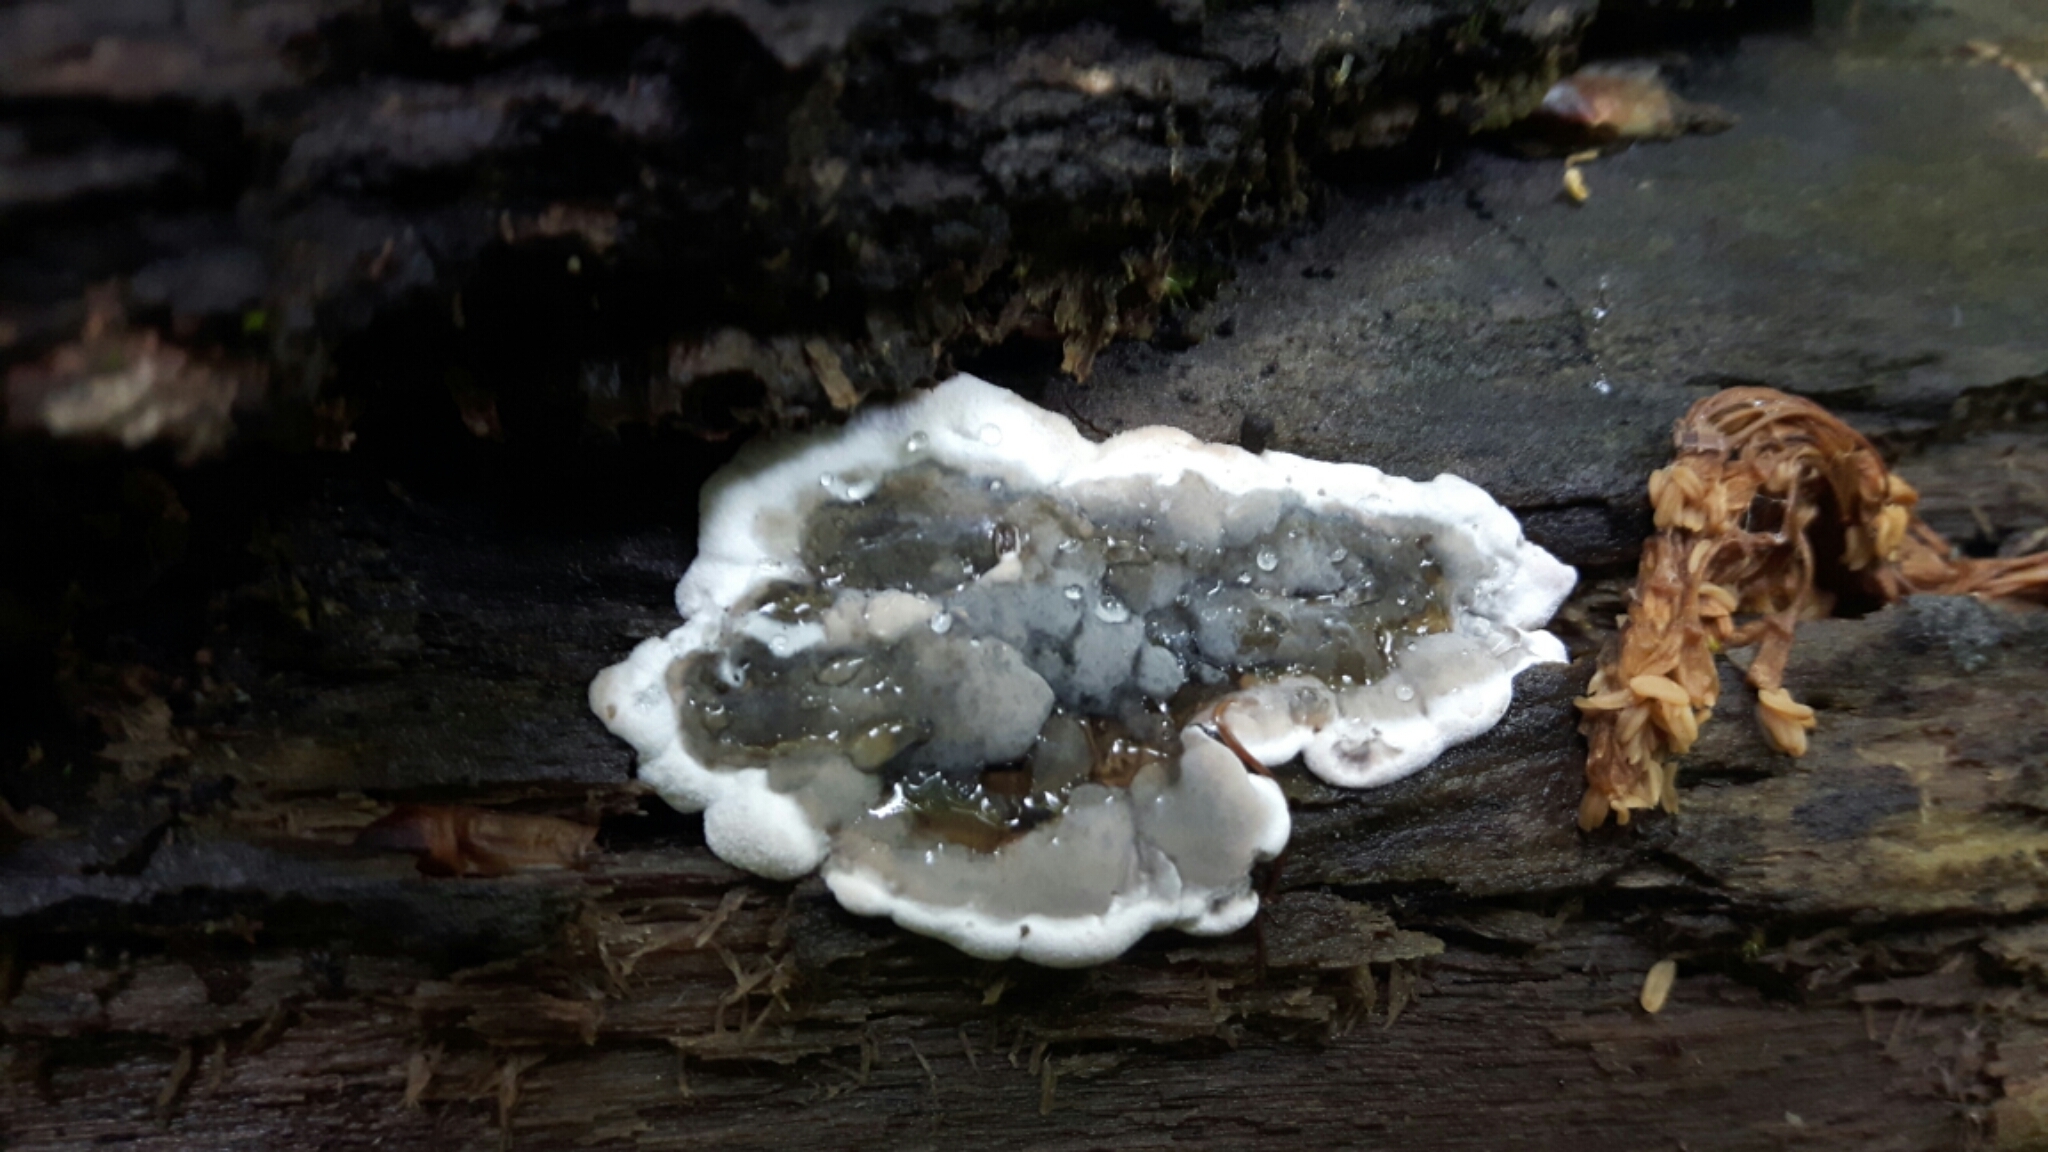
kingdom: Fungi
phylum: Ascomycota
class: Sordariomycetes
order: Xylariales
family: Xylariaceae
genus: Kretzschmaria
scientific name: Kretzschmaria deusta
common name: Brittle cinder
